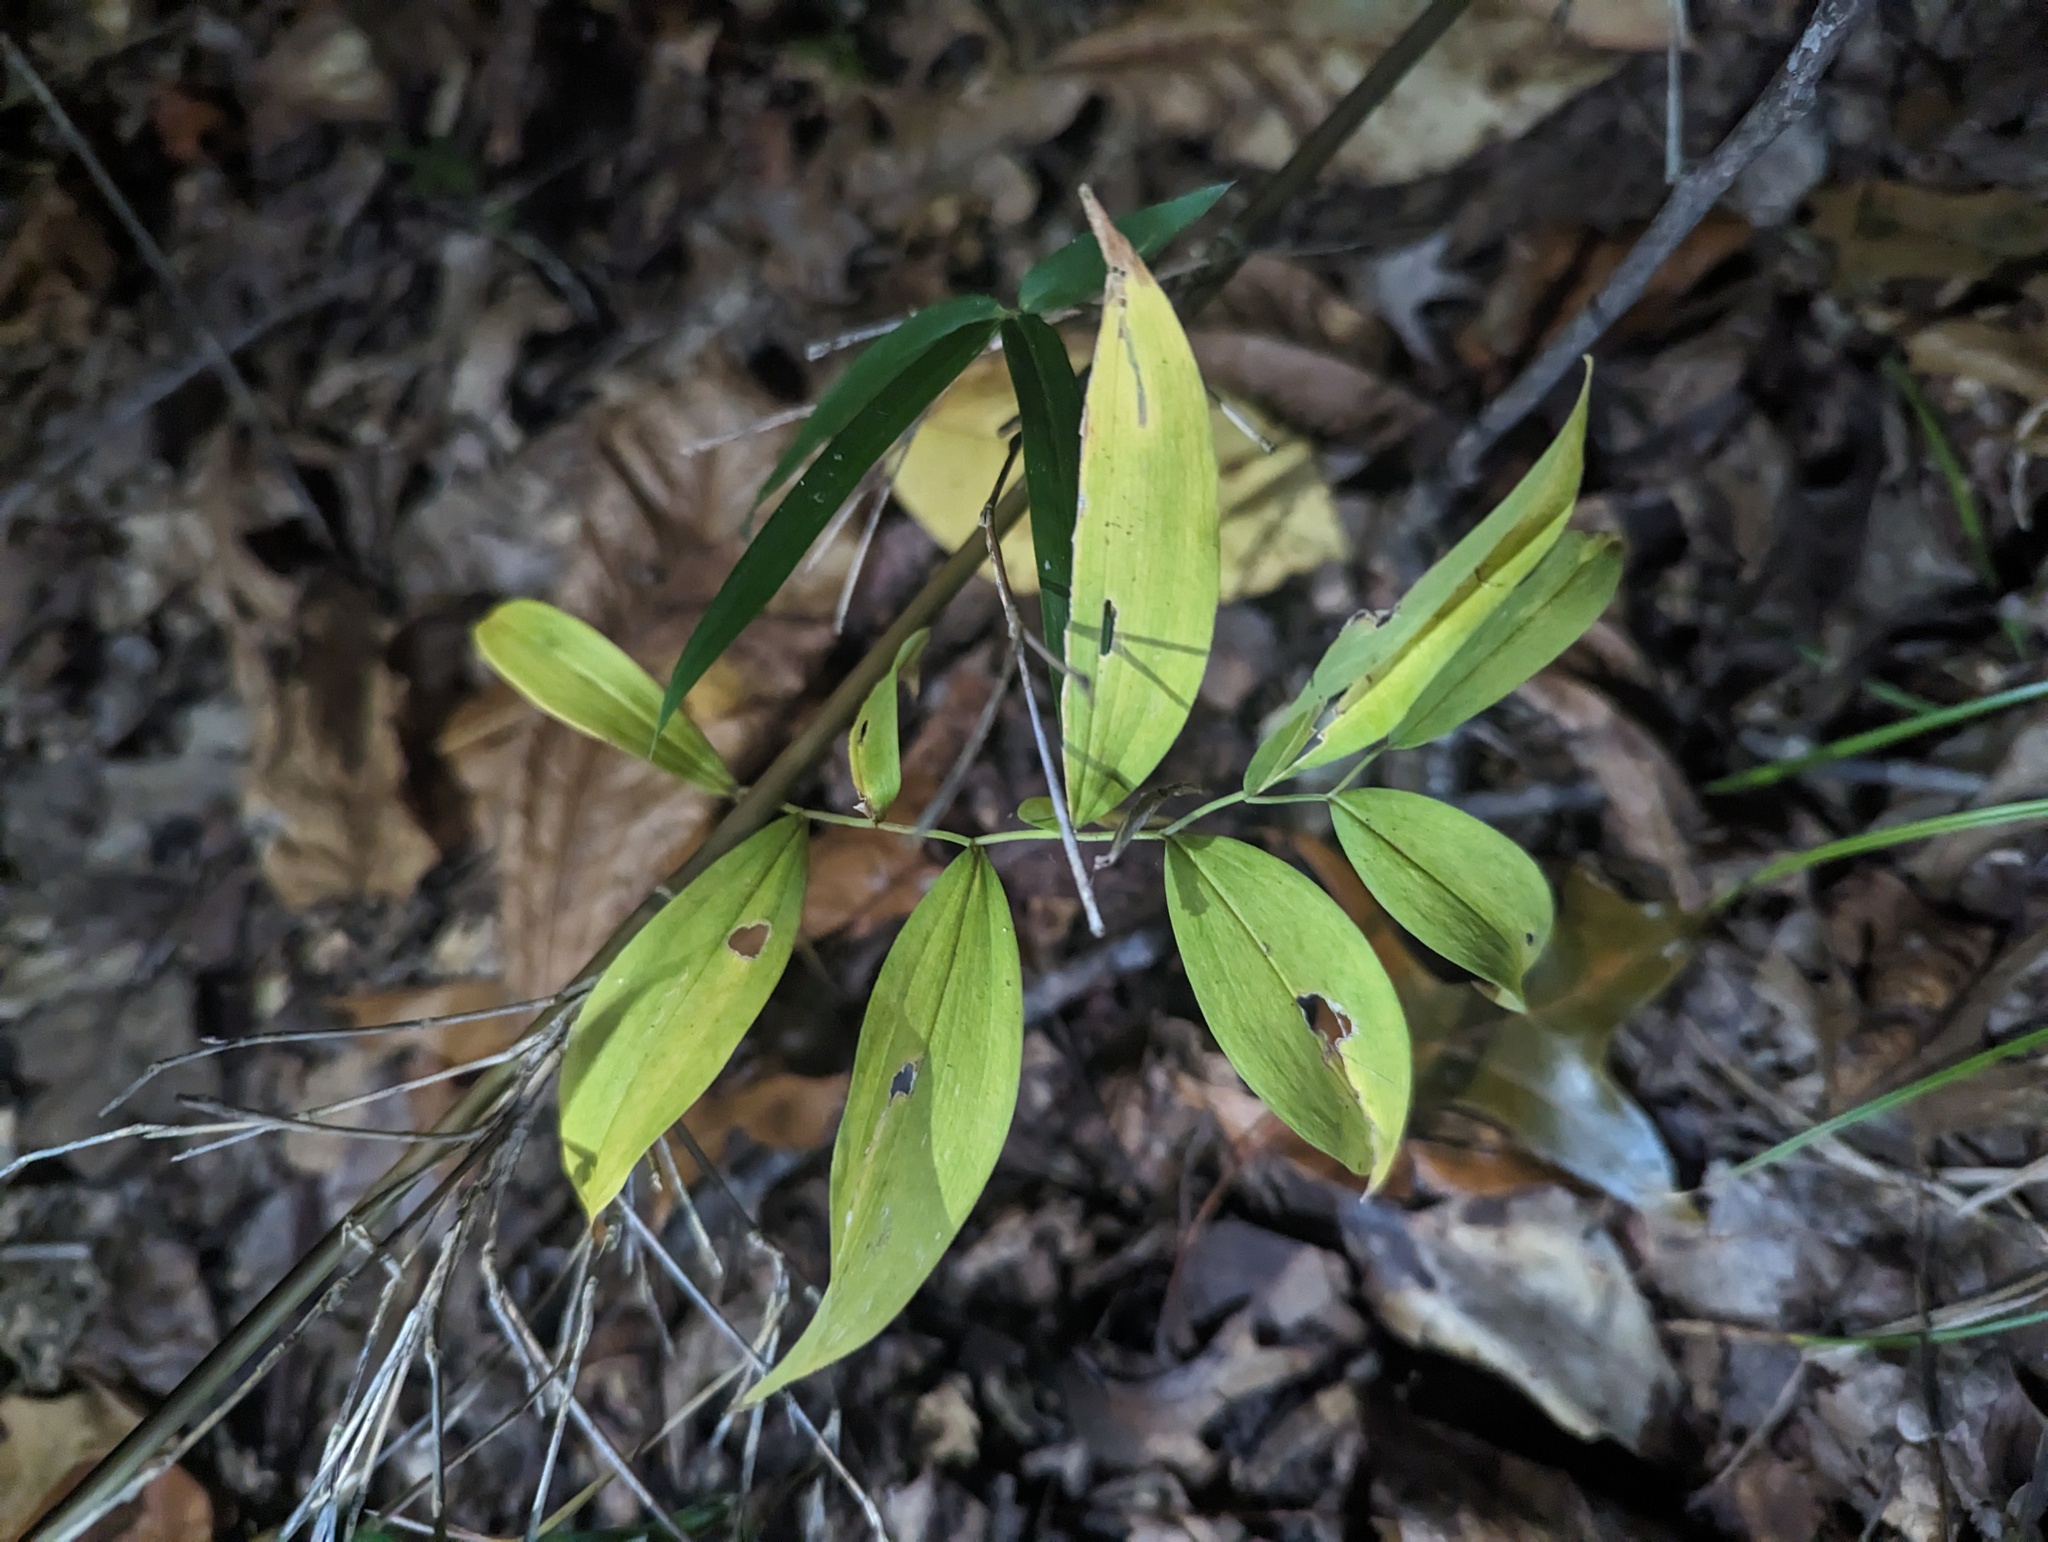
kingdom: Plantae
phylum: Tracheophyta
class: Liliopsida
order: Liliales
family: Colchicaceae
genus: Uvularia
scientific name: Uvularia sessilifolia
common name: Straw-lily
